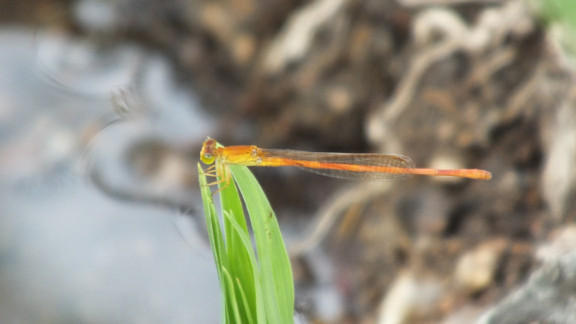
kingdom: Animalia
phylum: Arthropoda
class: Insecta
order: Odonata
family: Coenagrionidae
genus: Ceriagrion
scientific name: Ceriagrion glabrum
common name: Common pond damsel
